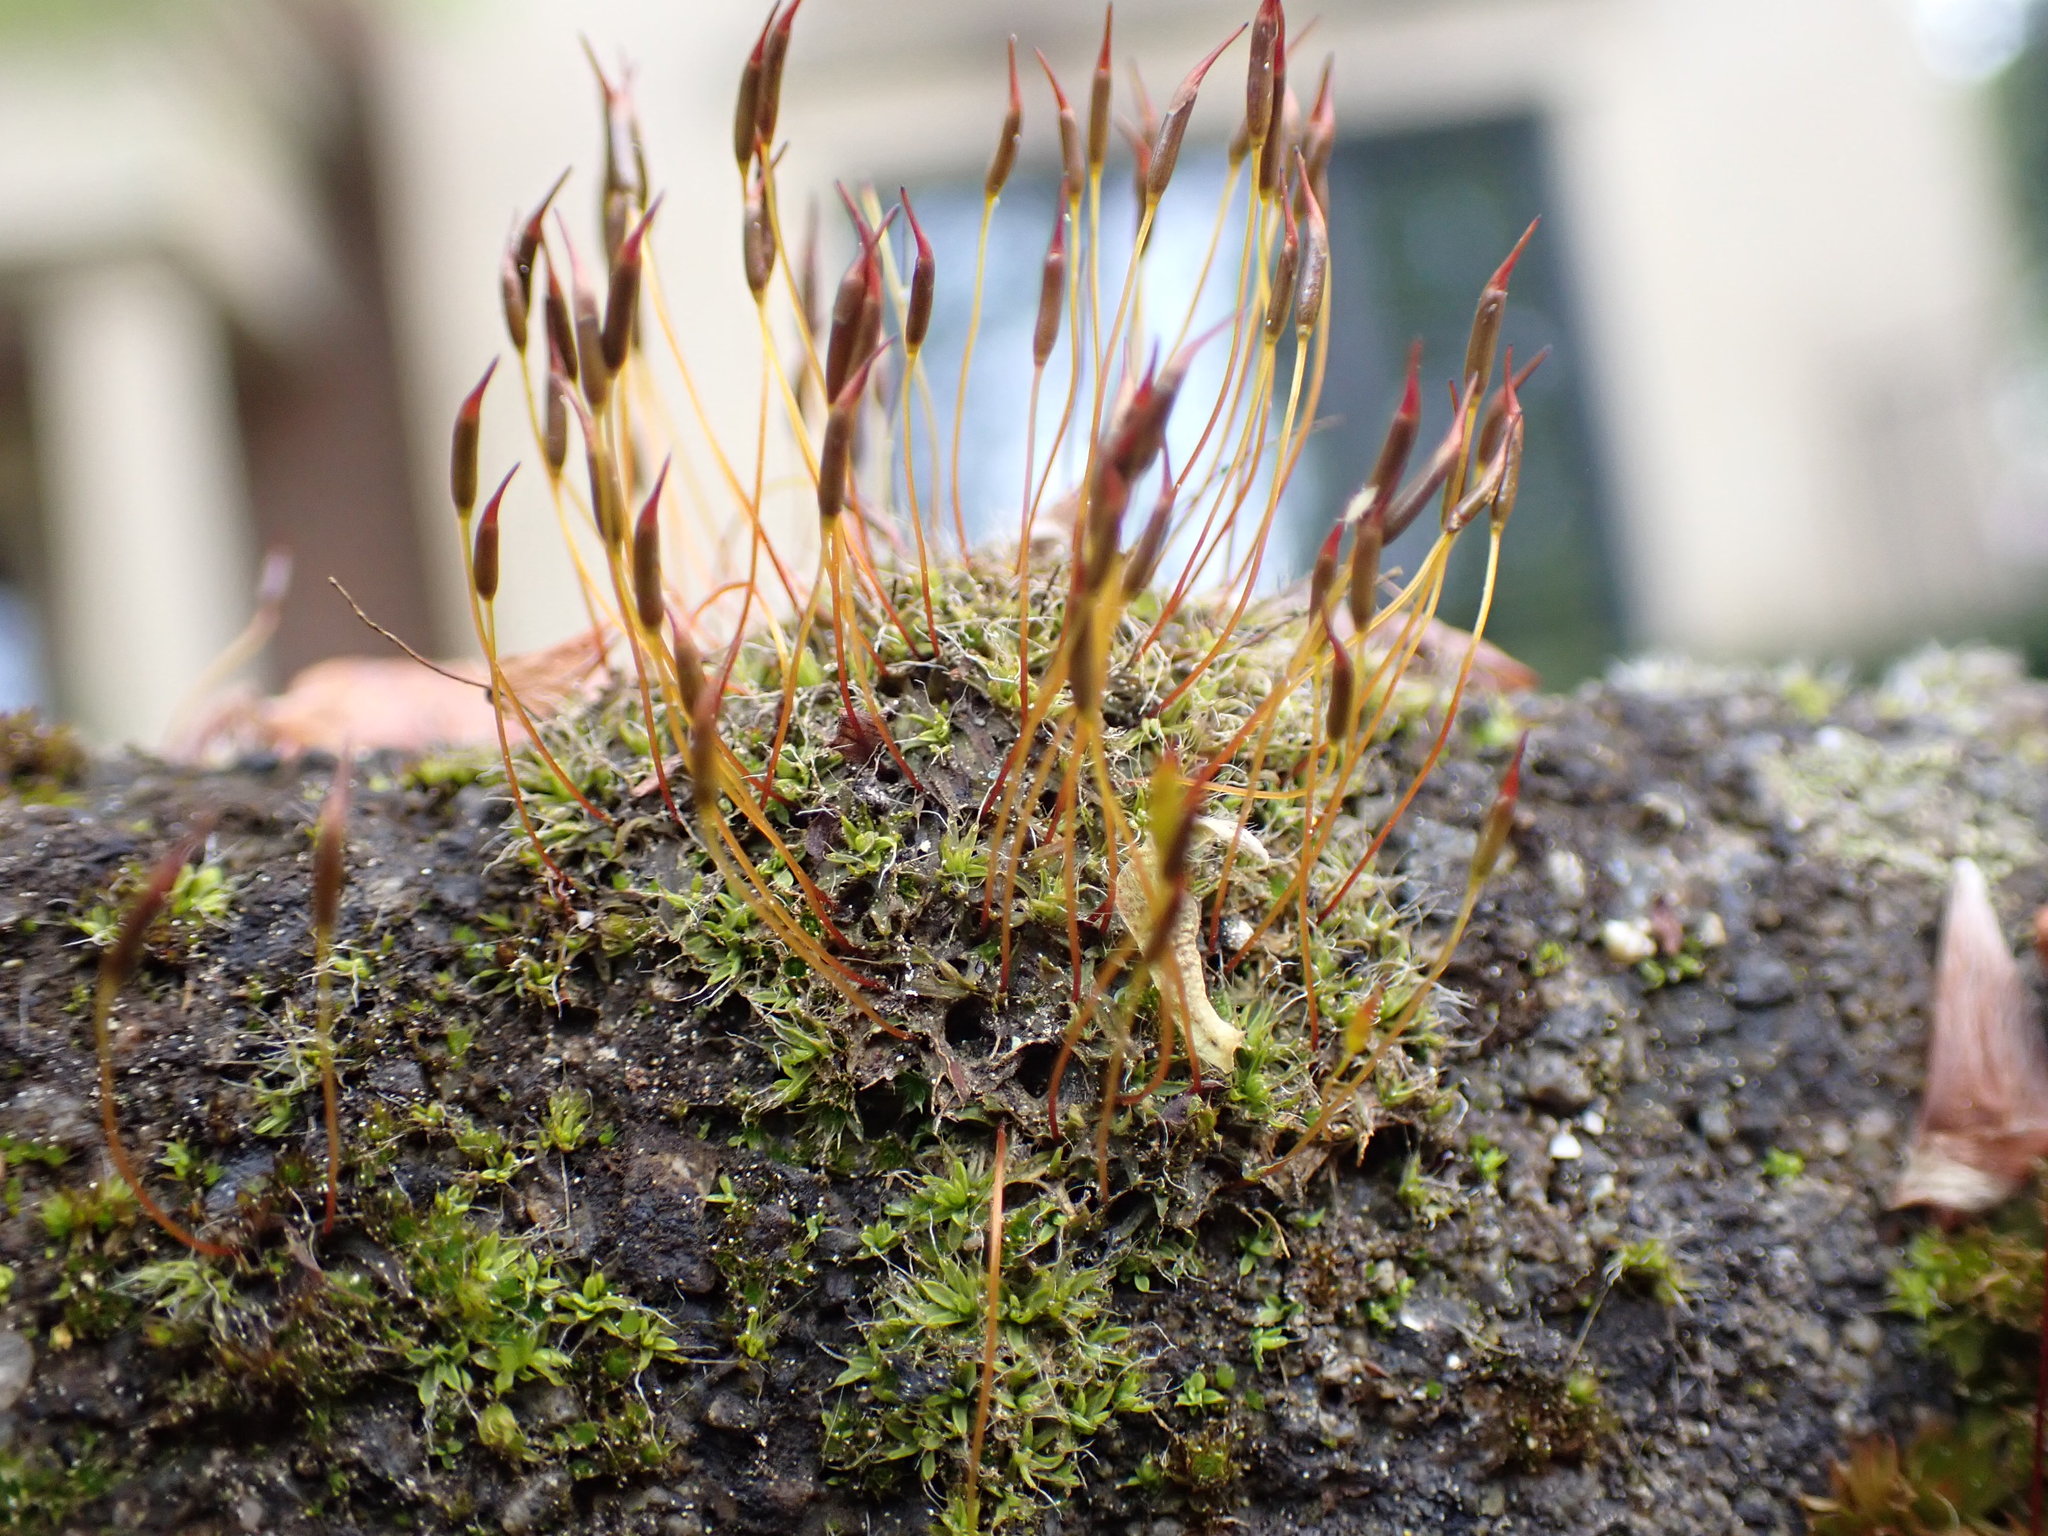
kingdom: Plantae
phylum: Bryophyta
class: Bryopsida
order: Pottiales
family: Pottiaceae
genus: Tortula
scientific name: Tortula muralis
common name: Wall screw-moss
